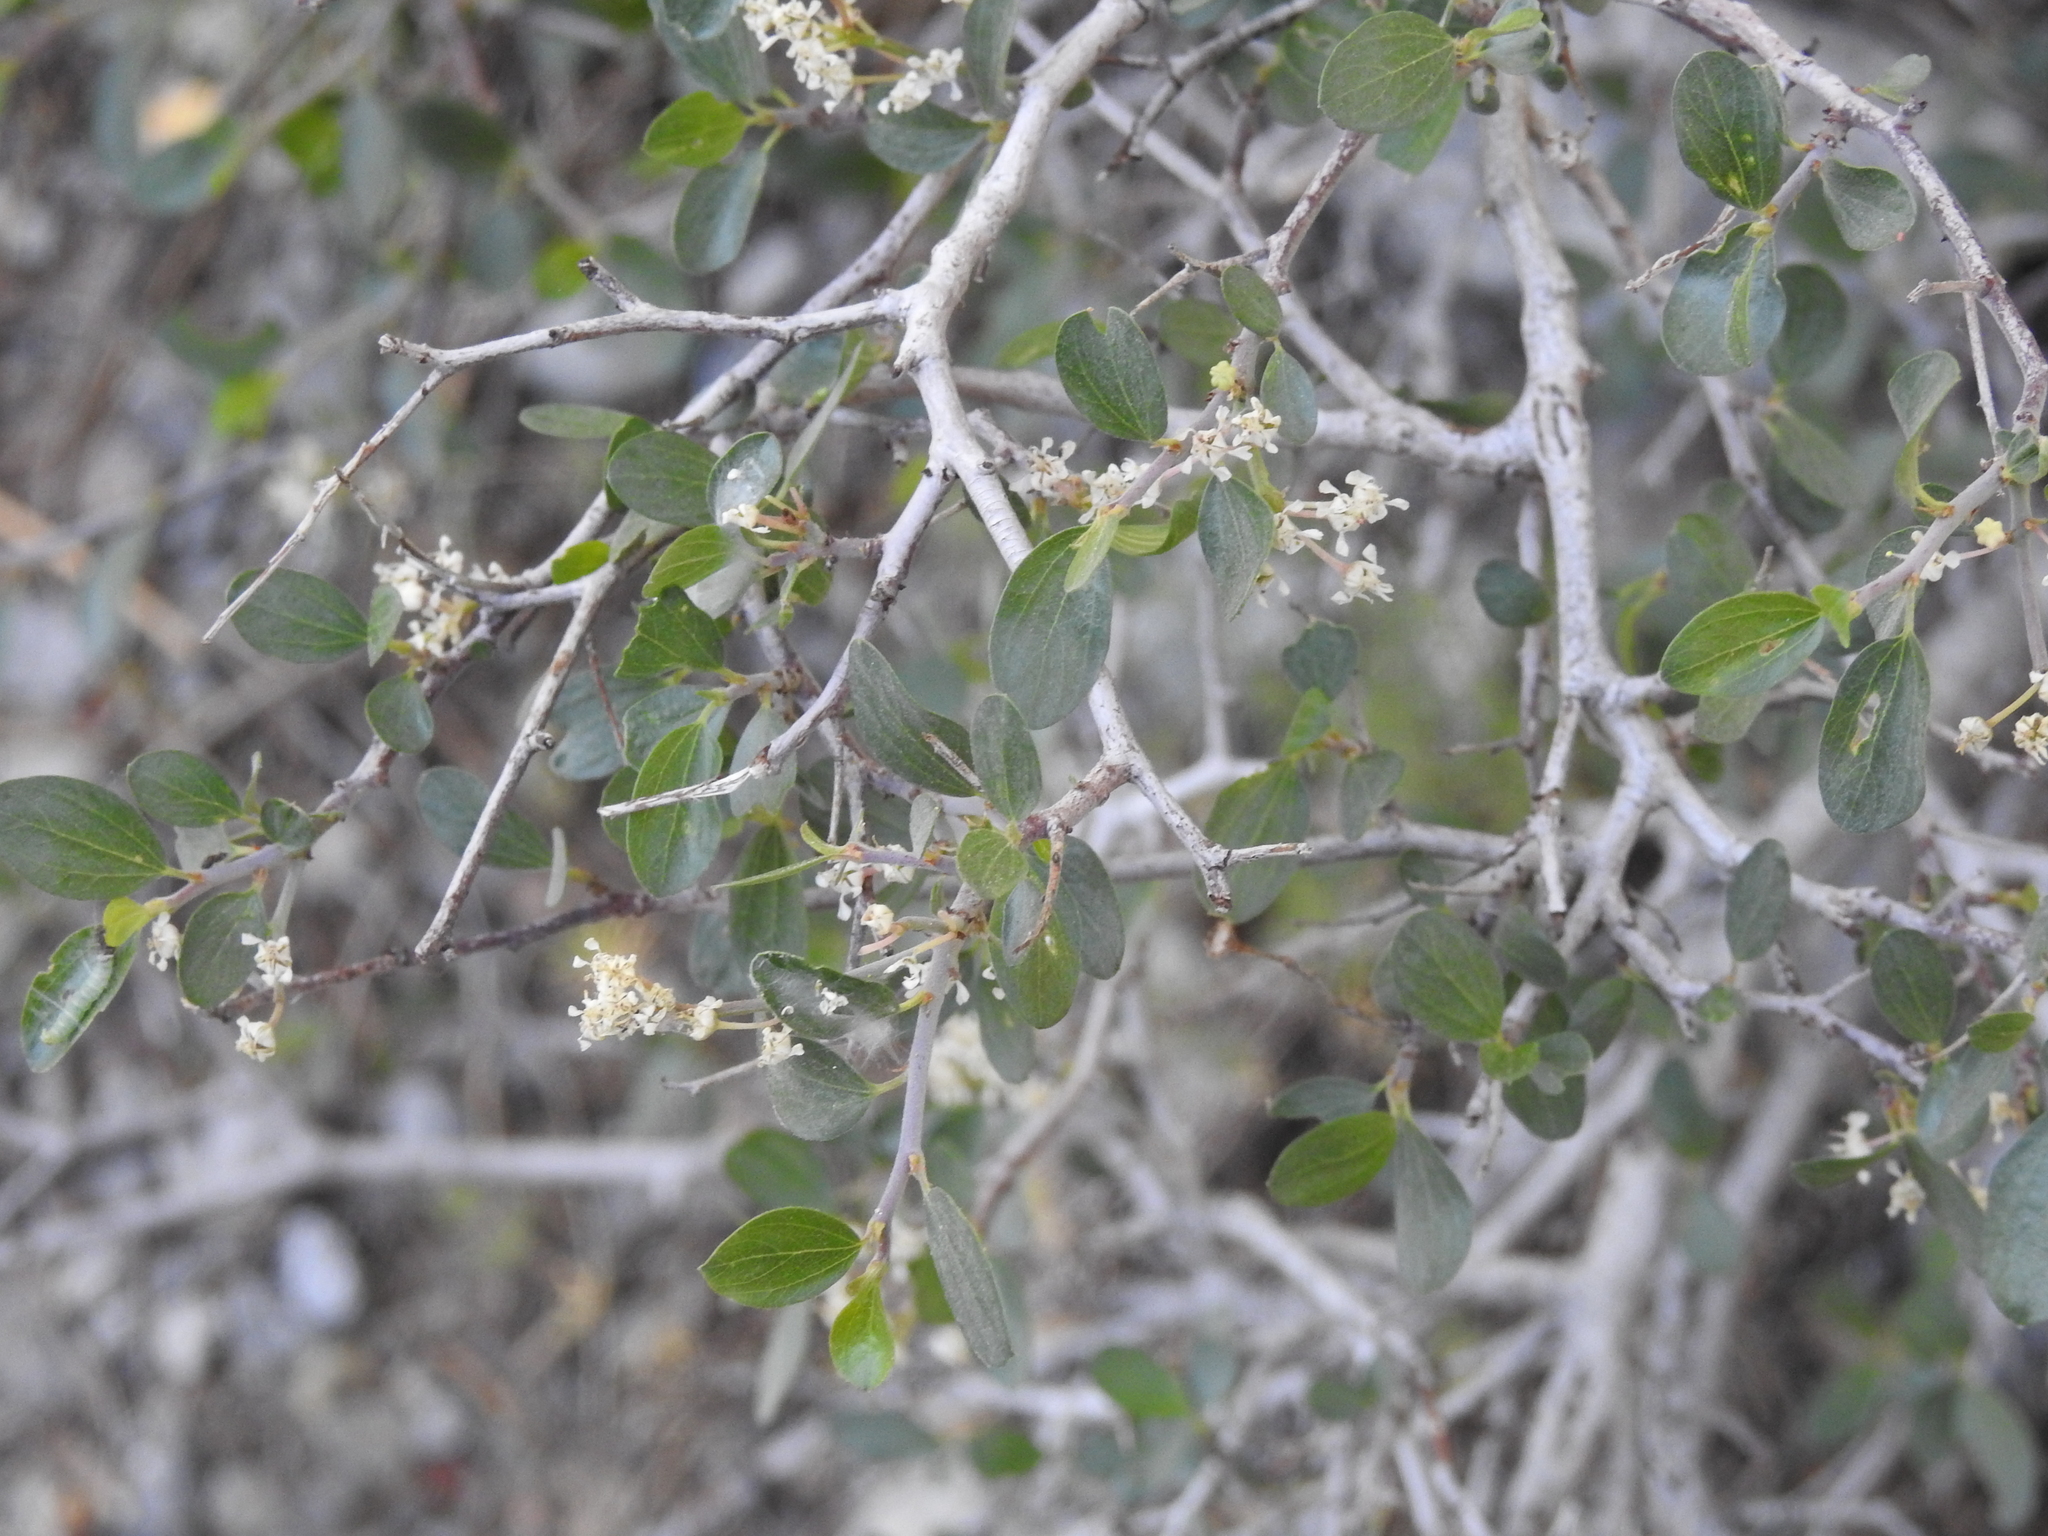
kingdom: Plantae
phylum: Tracheophyta
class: Magnoliopsida
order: Rosales
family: Rhamnaceae
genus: Ceanothus
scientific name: Ceanothus martini
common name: Martin ceanothus
